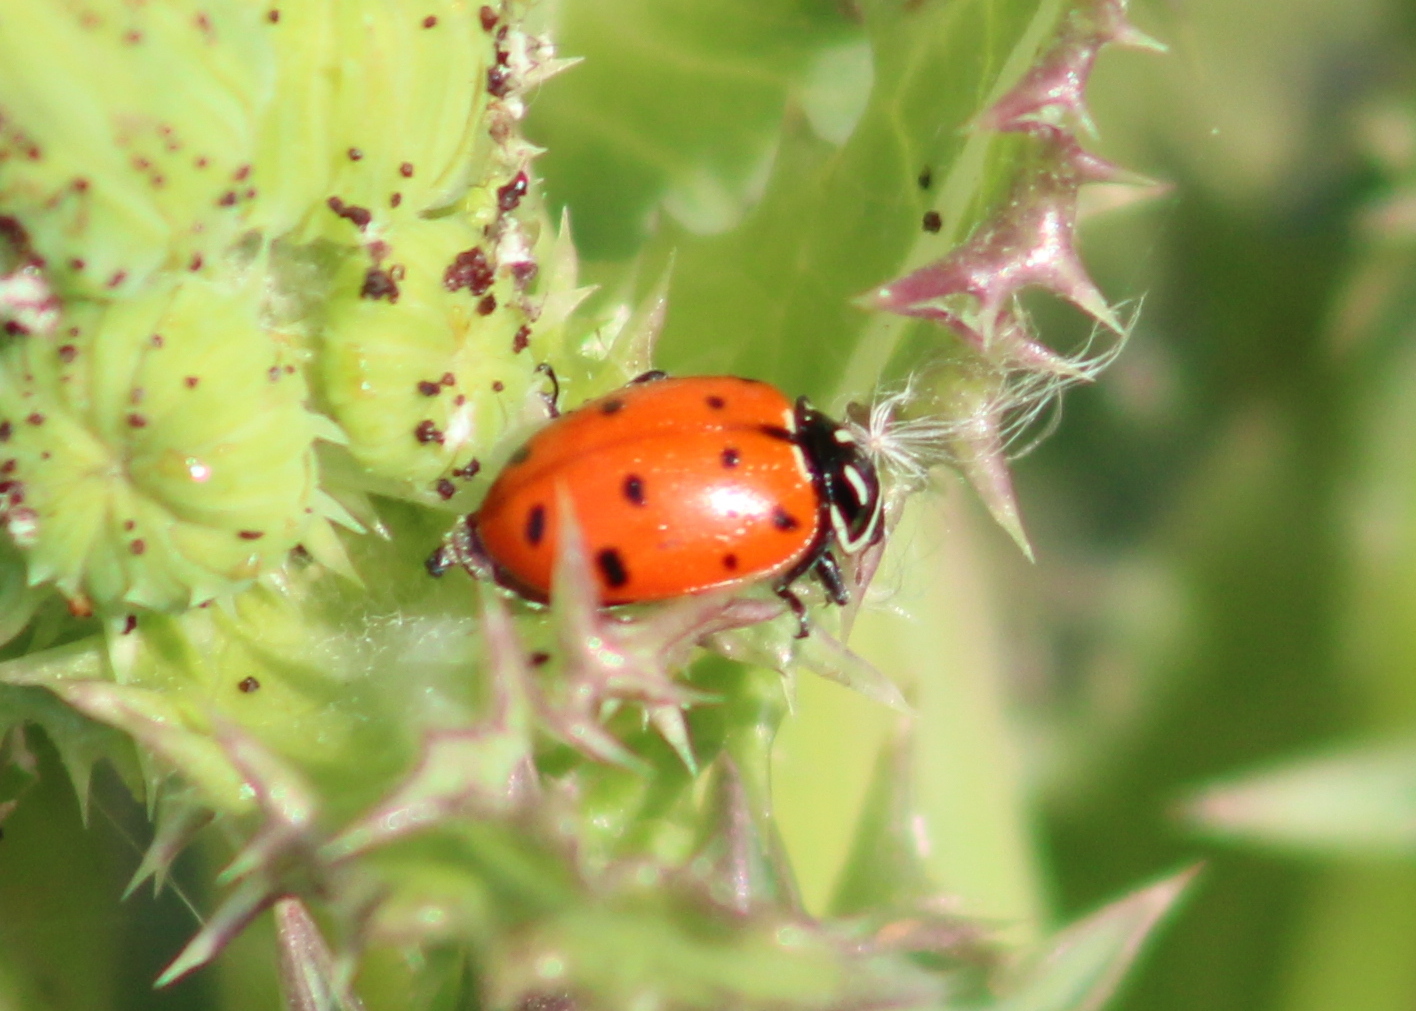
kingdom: Animalia
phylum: Arthropoda
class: Insecta
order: Coleoptera
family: Coccinellidae
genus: Hippodamia
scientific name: Hippodamia convergens
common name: Convergent lady beetle
